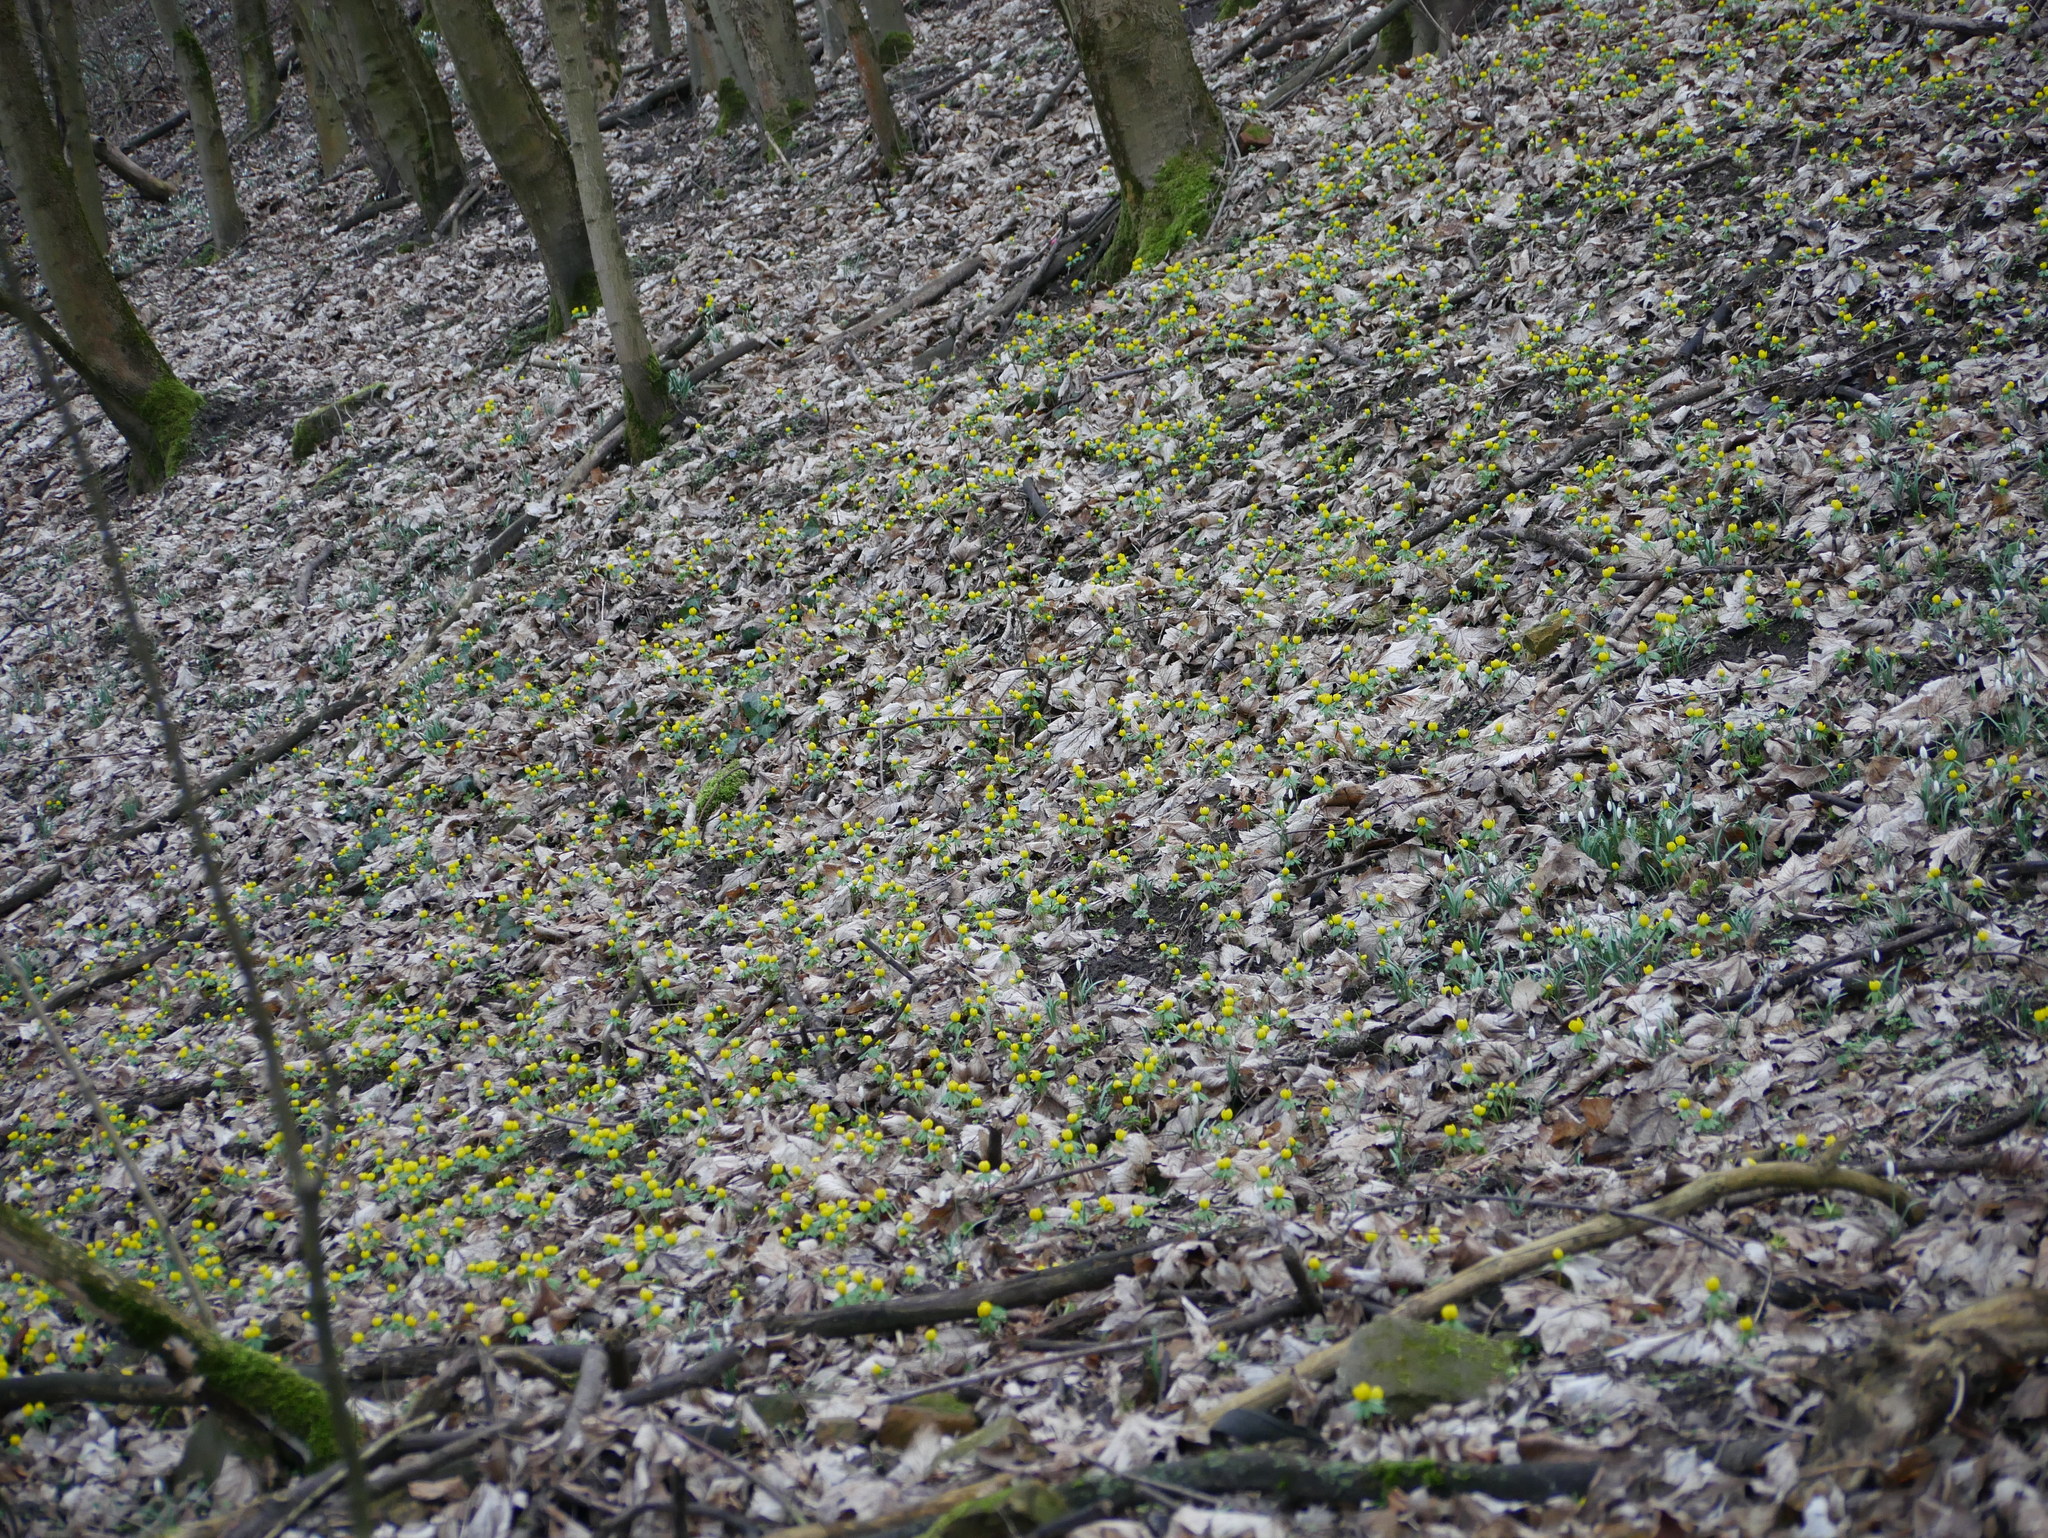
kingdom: Plantae
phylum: Tracheophyta
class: Magnoliopsida
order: Ranunculales
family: Ranunculaceae
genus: Eranthis
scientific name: Eranthis hyemalis
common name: Winter aconite
